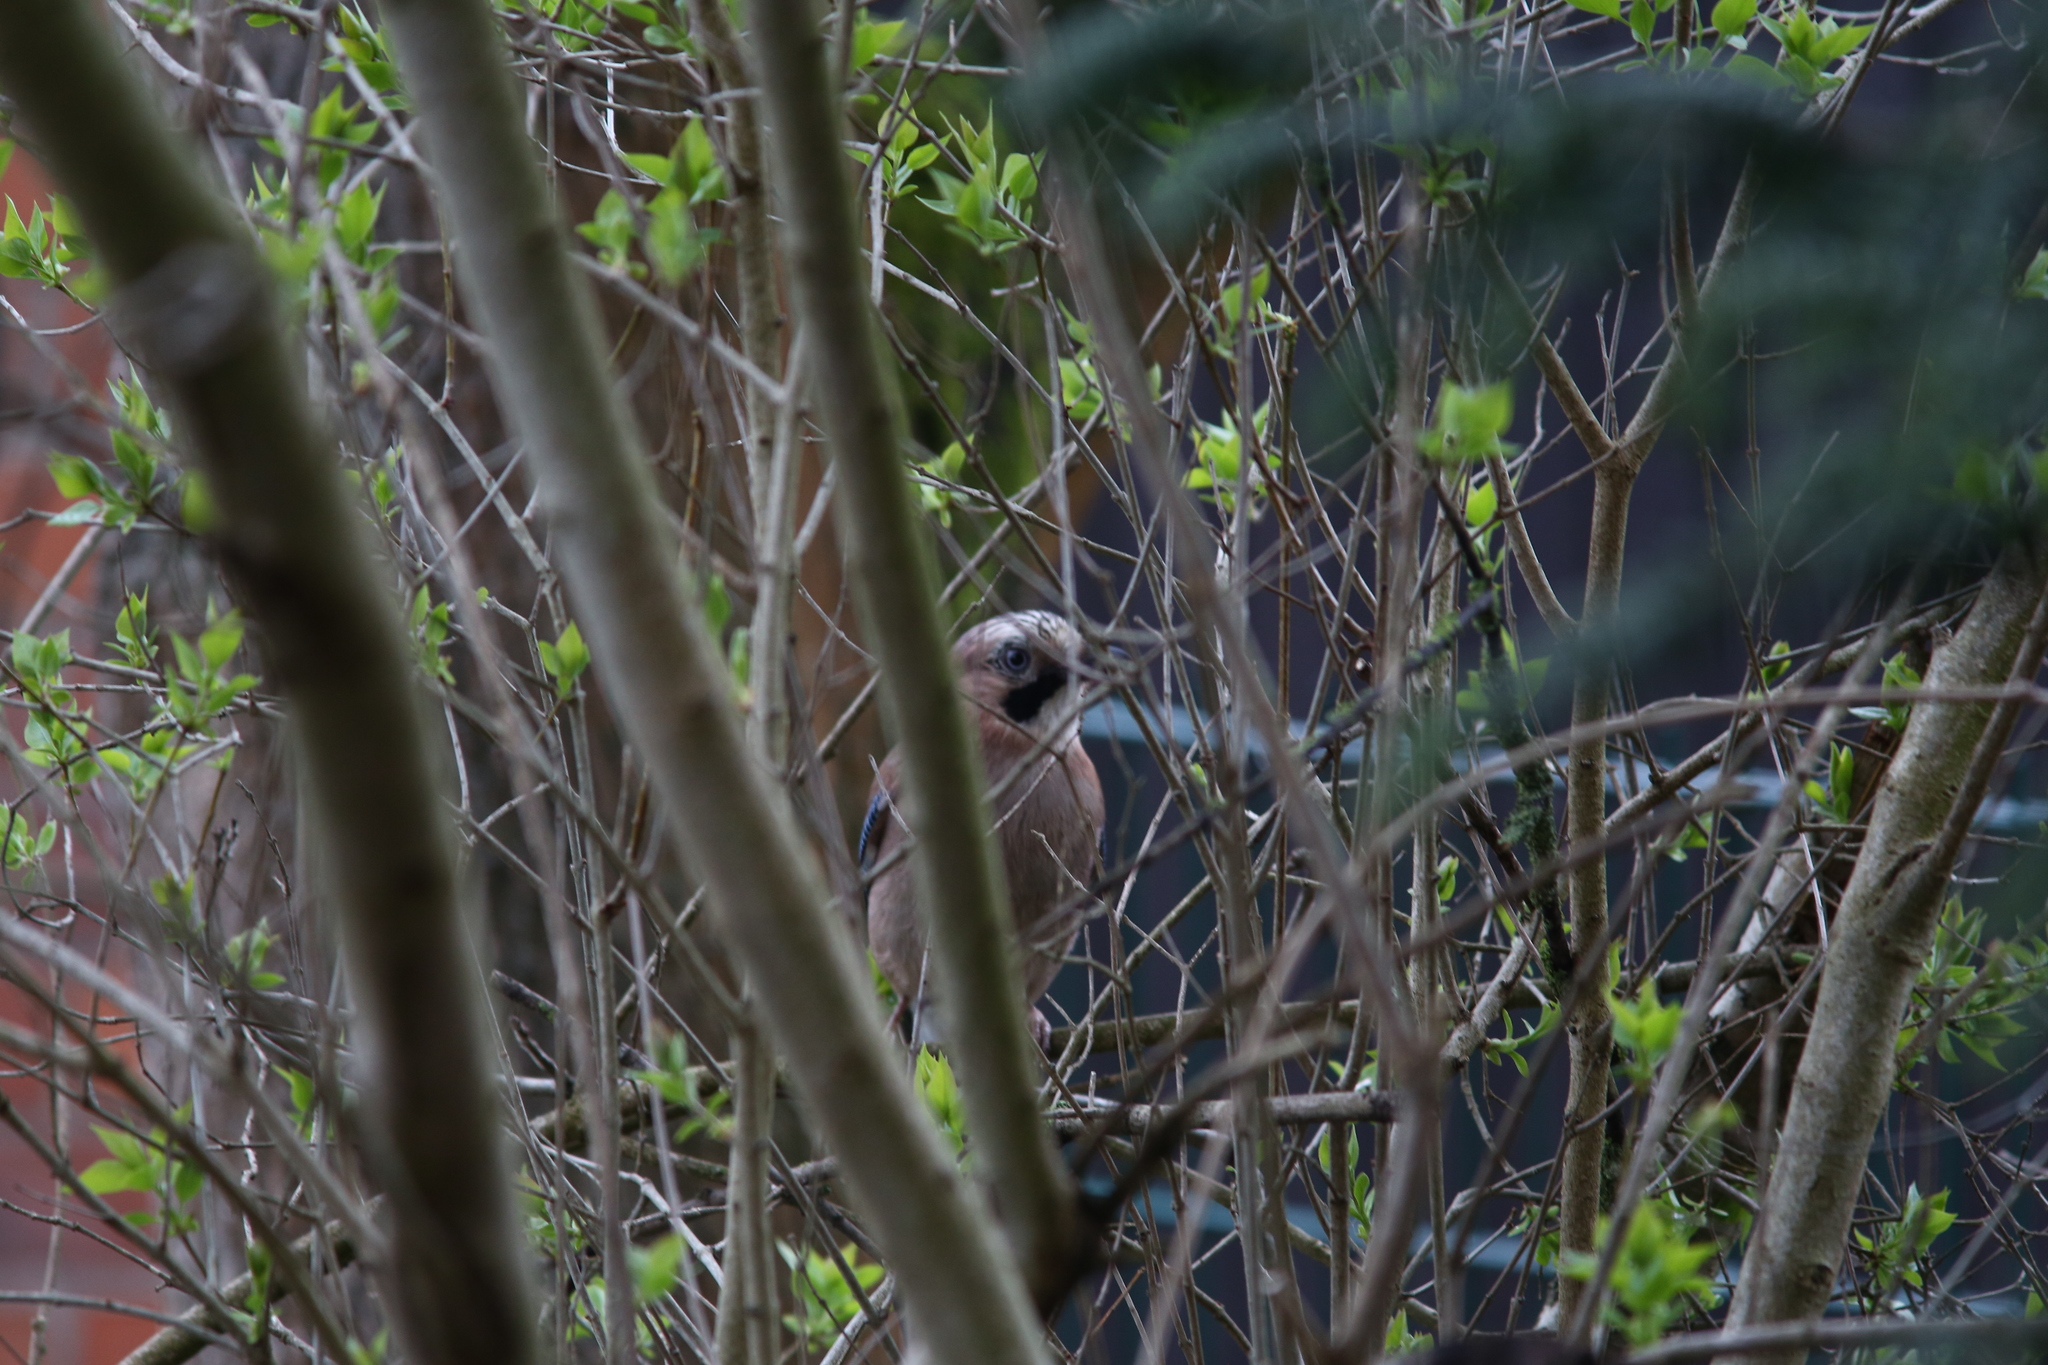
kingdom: Animalia
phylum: Chordata
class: Aves
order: Passeriformes
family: Corvidae
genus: Garrulus
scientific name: Garrulus glandarius
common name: Eurasian jay
